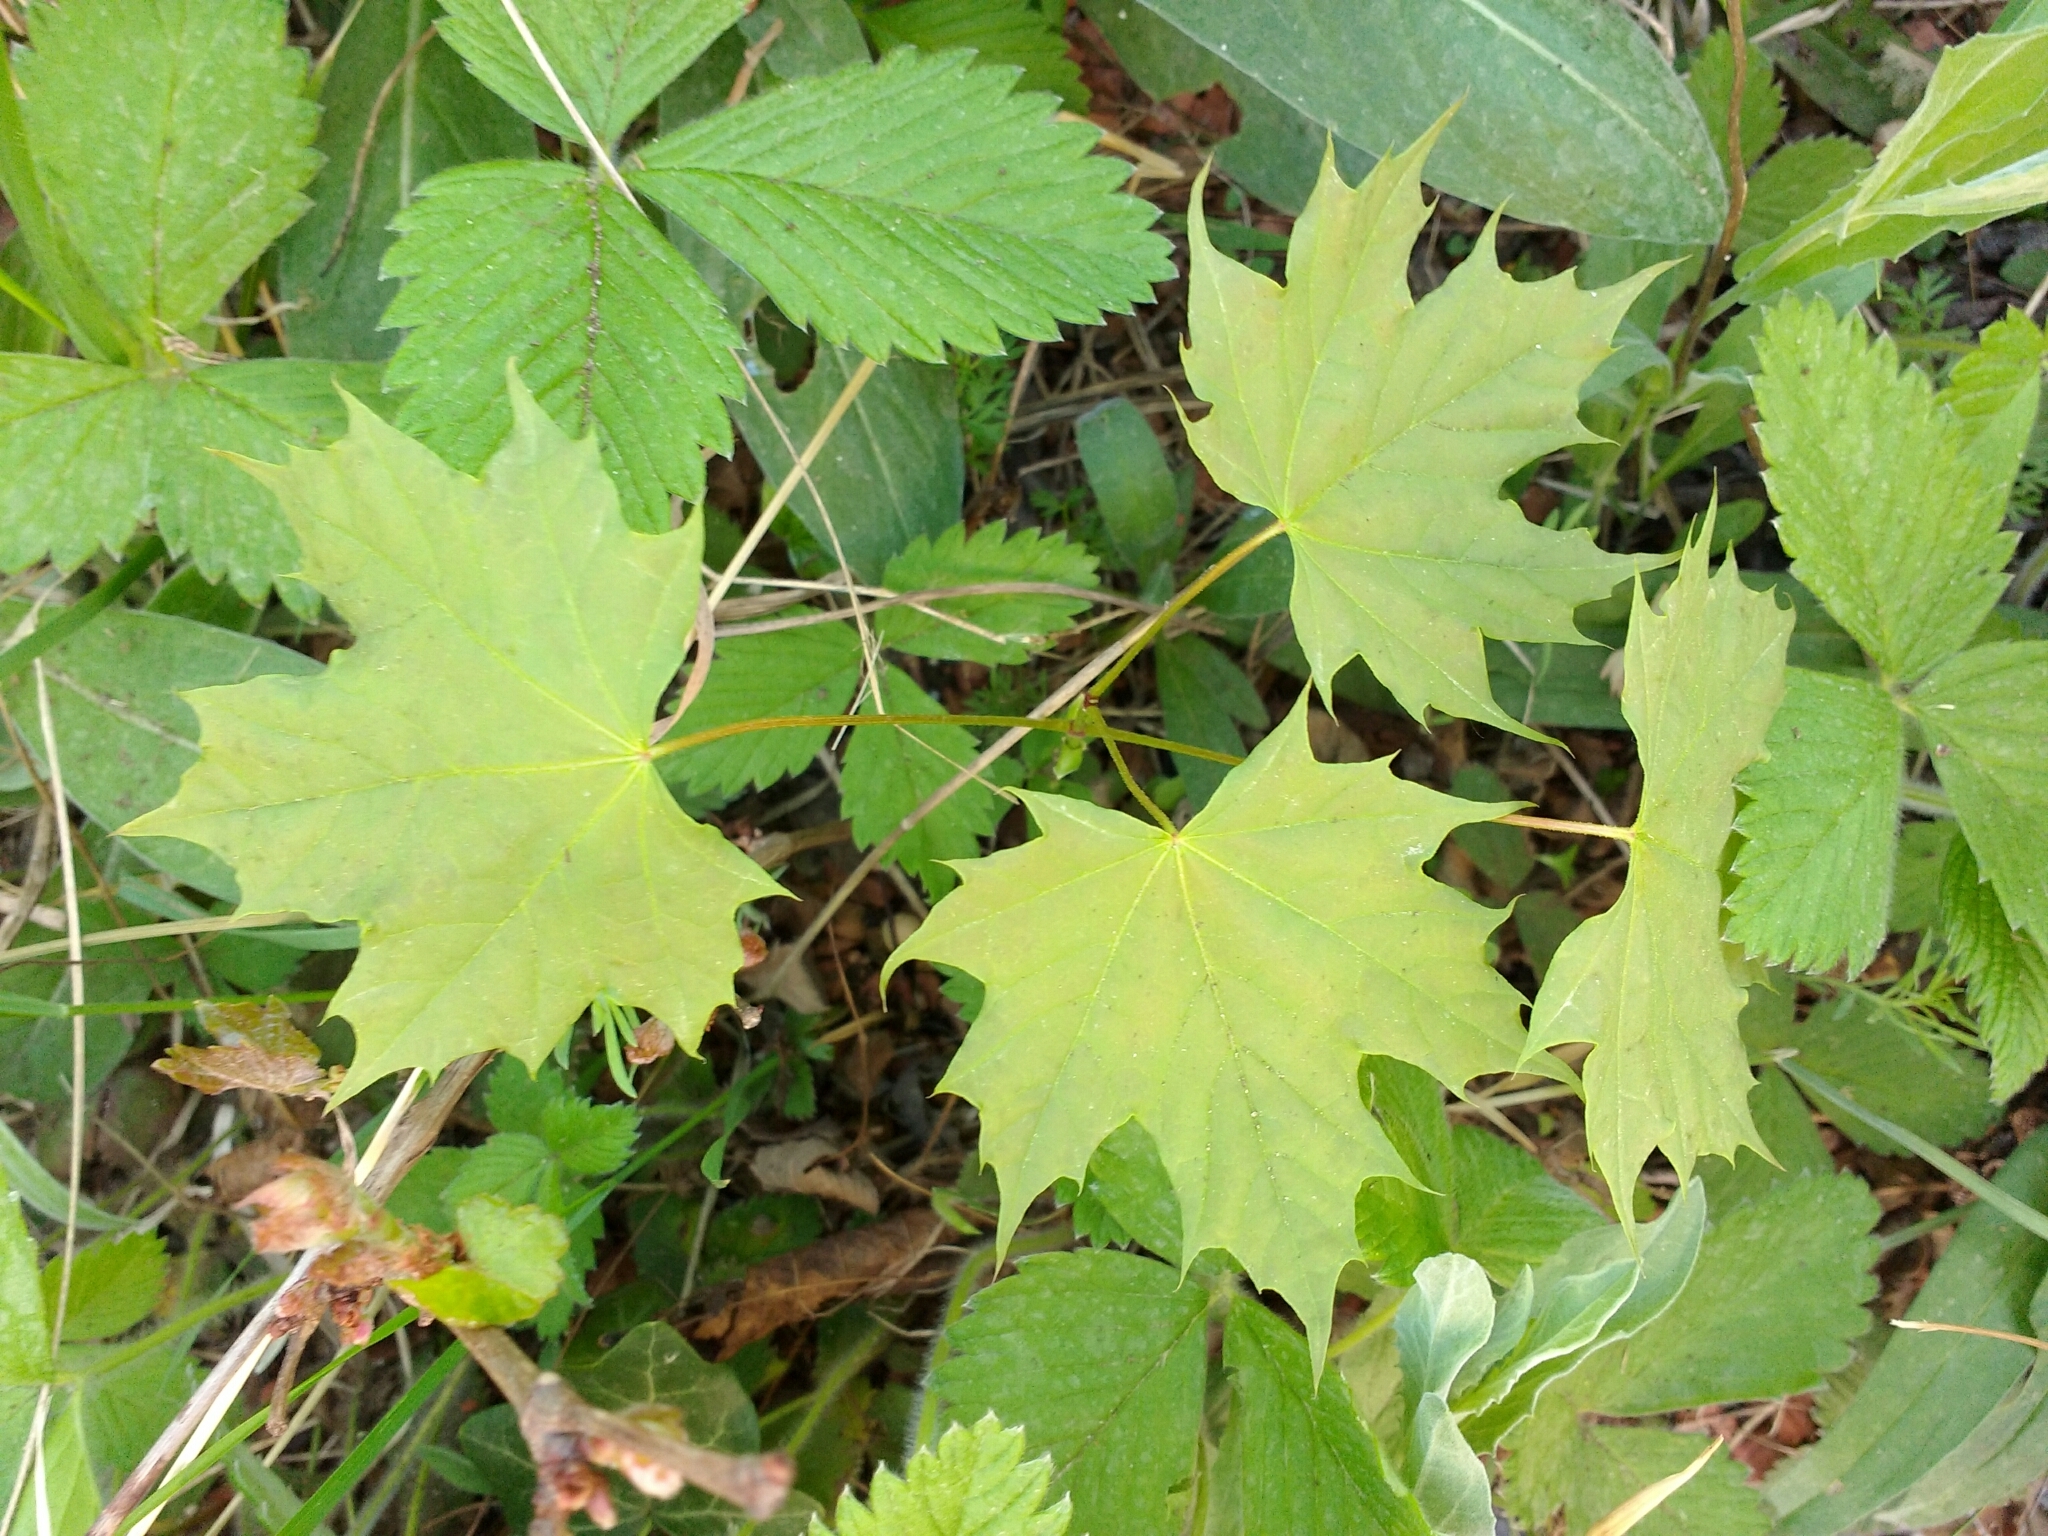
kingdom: Plantae
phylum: Tracheophyta
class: Magnoliopsida
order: Sapindales
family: Sapindaceae
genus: Acer
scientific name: Acer platanoides
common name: Norway maple
